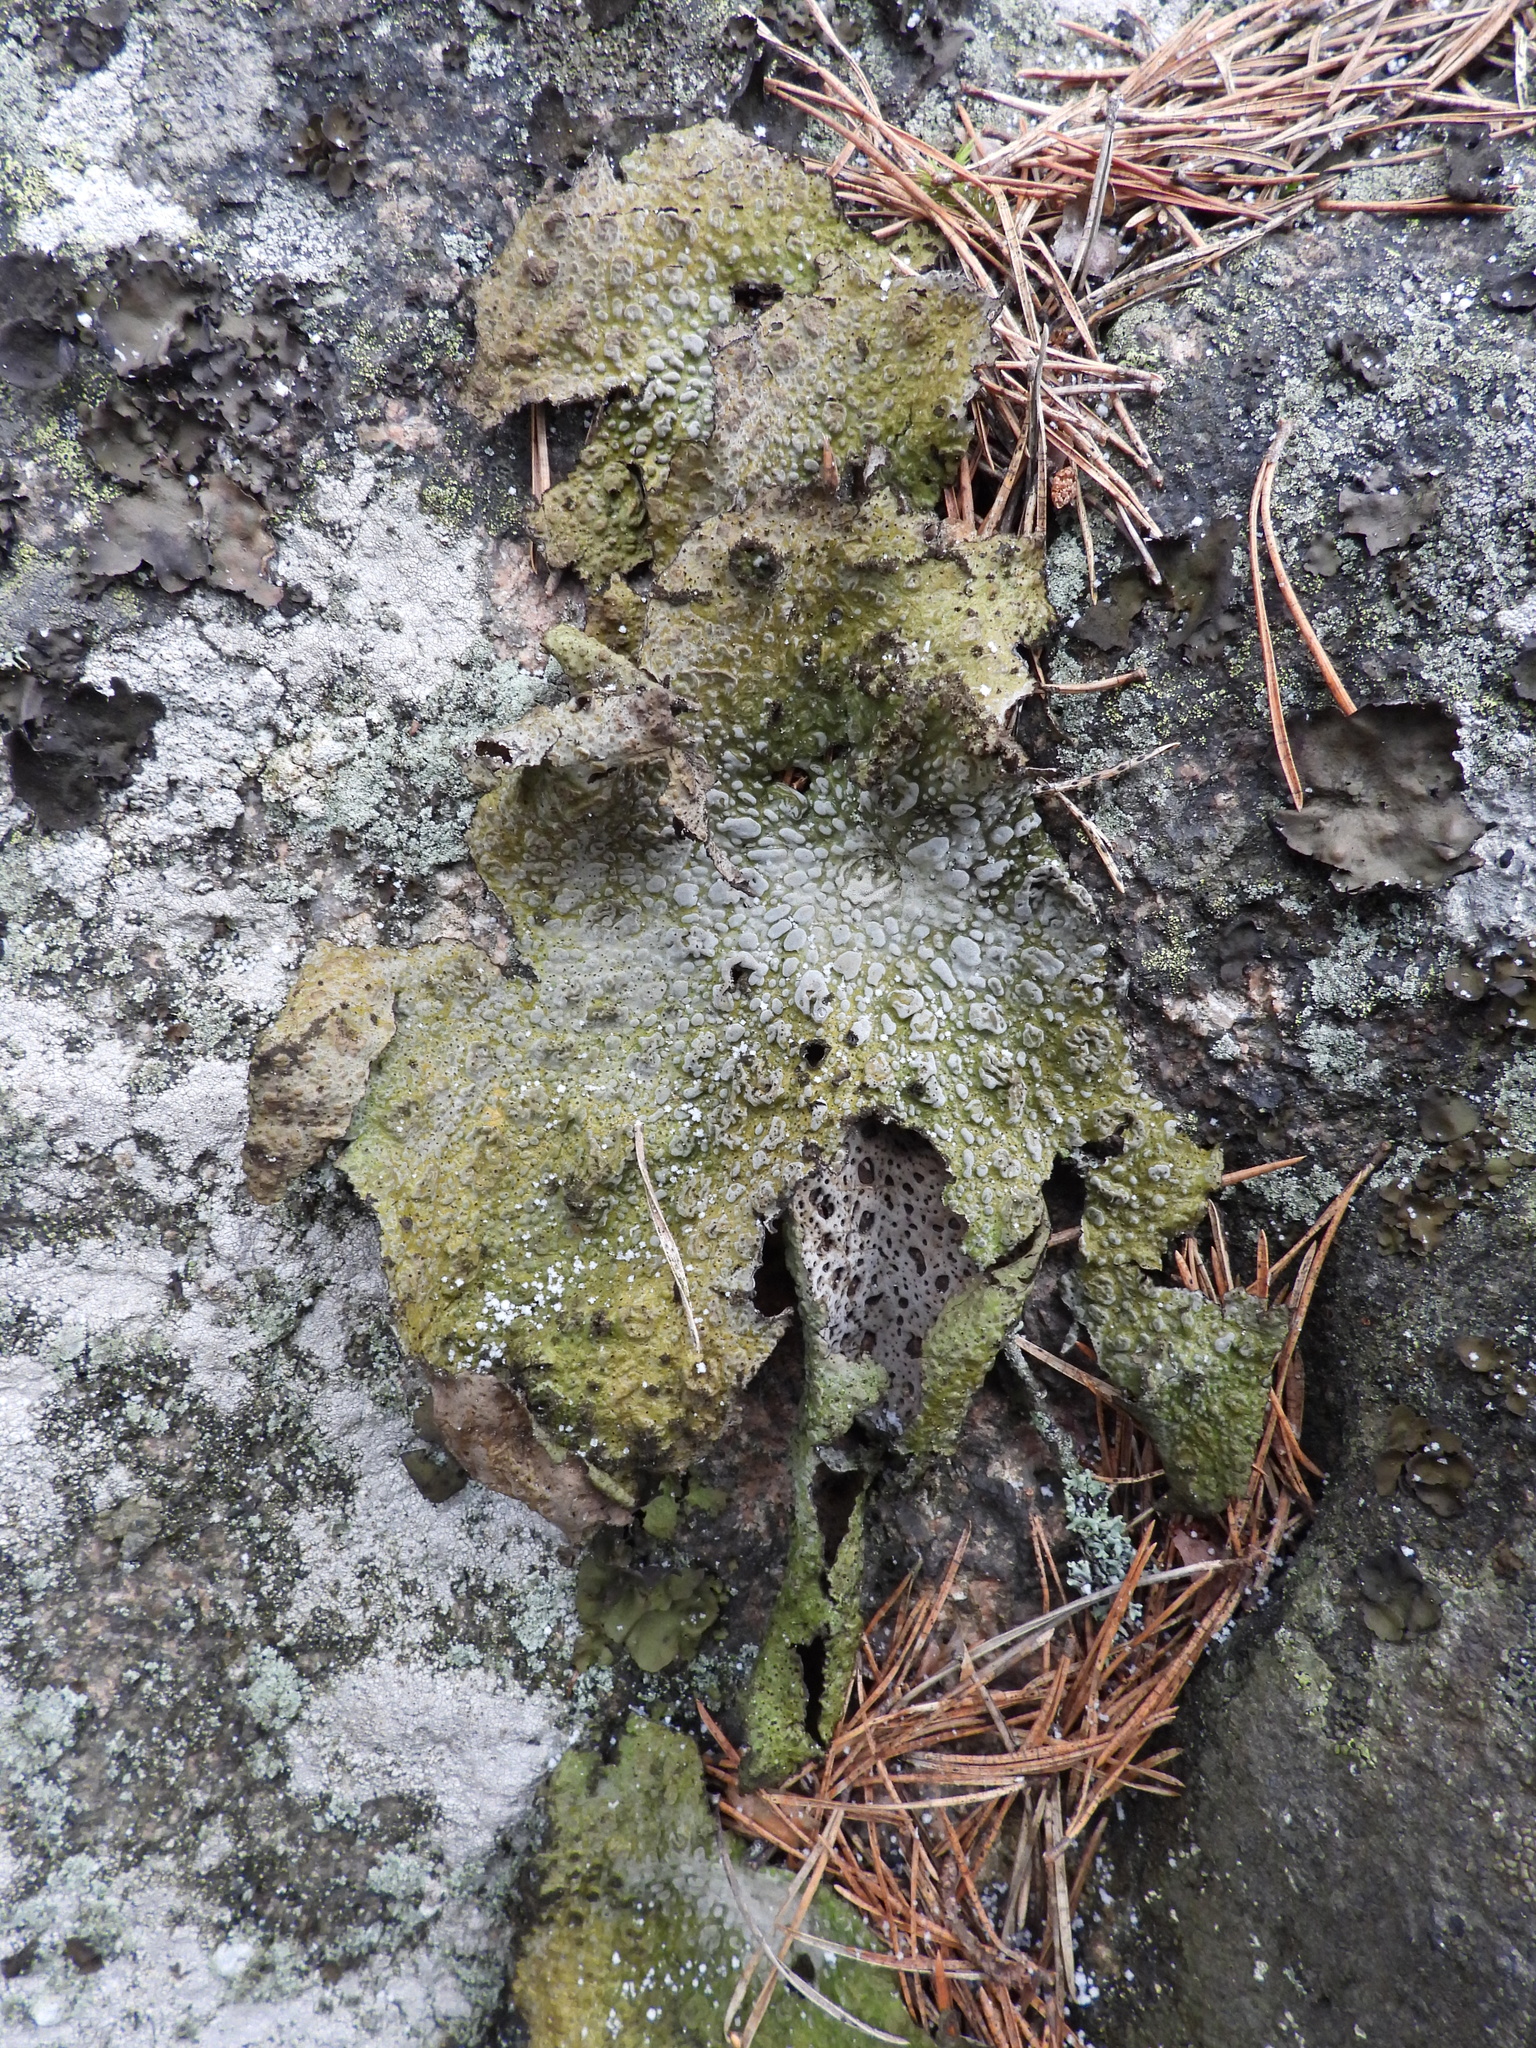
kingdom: Fungi
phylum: Ascomycota
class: Lecanoromycetes
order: Umbilicariales
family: Umbilicariaceae
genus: Lasallia
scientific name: Lasallia pustulata
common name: Blistered toadskin lichen
